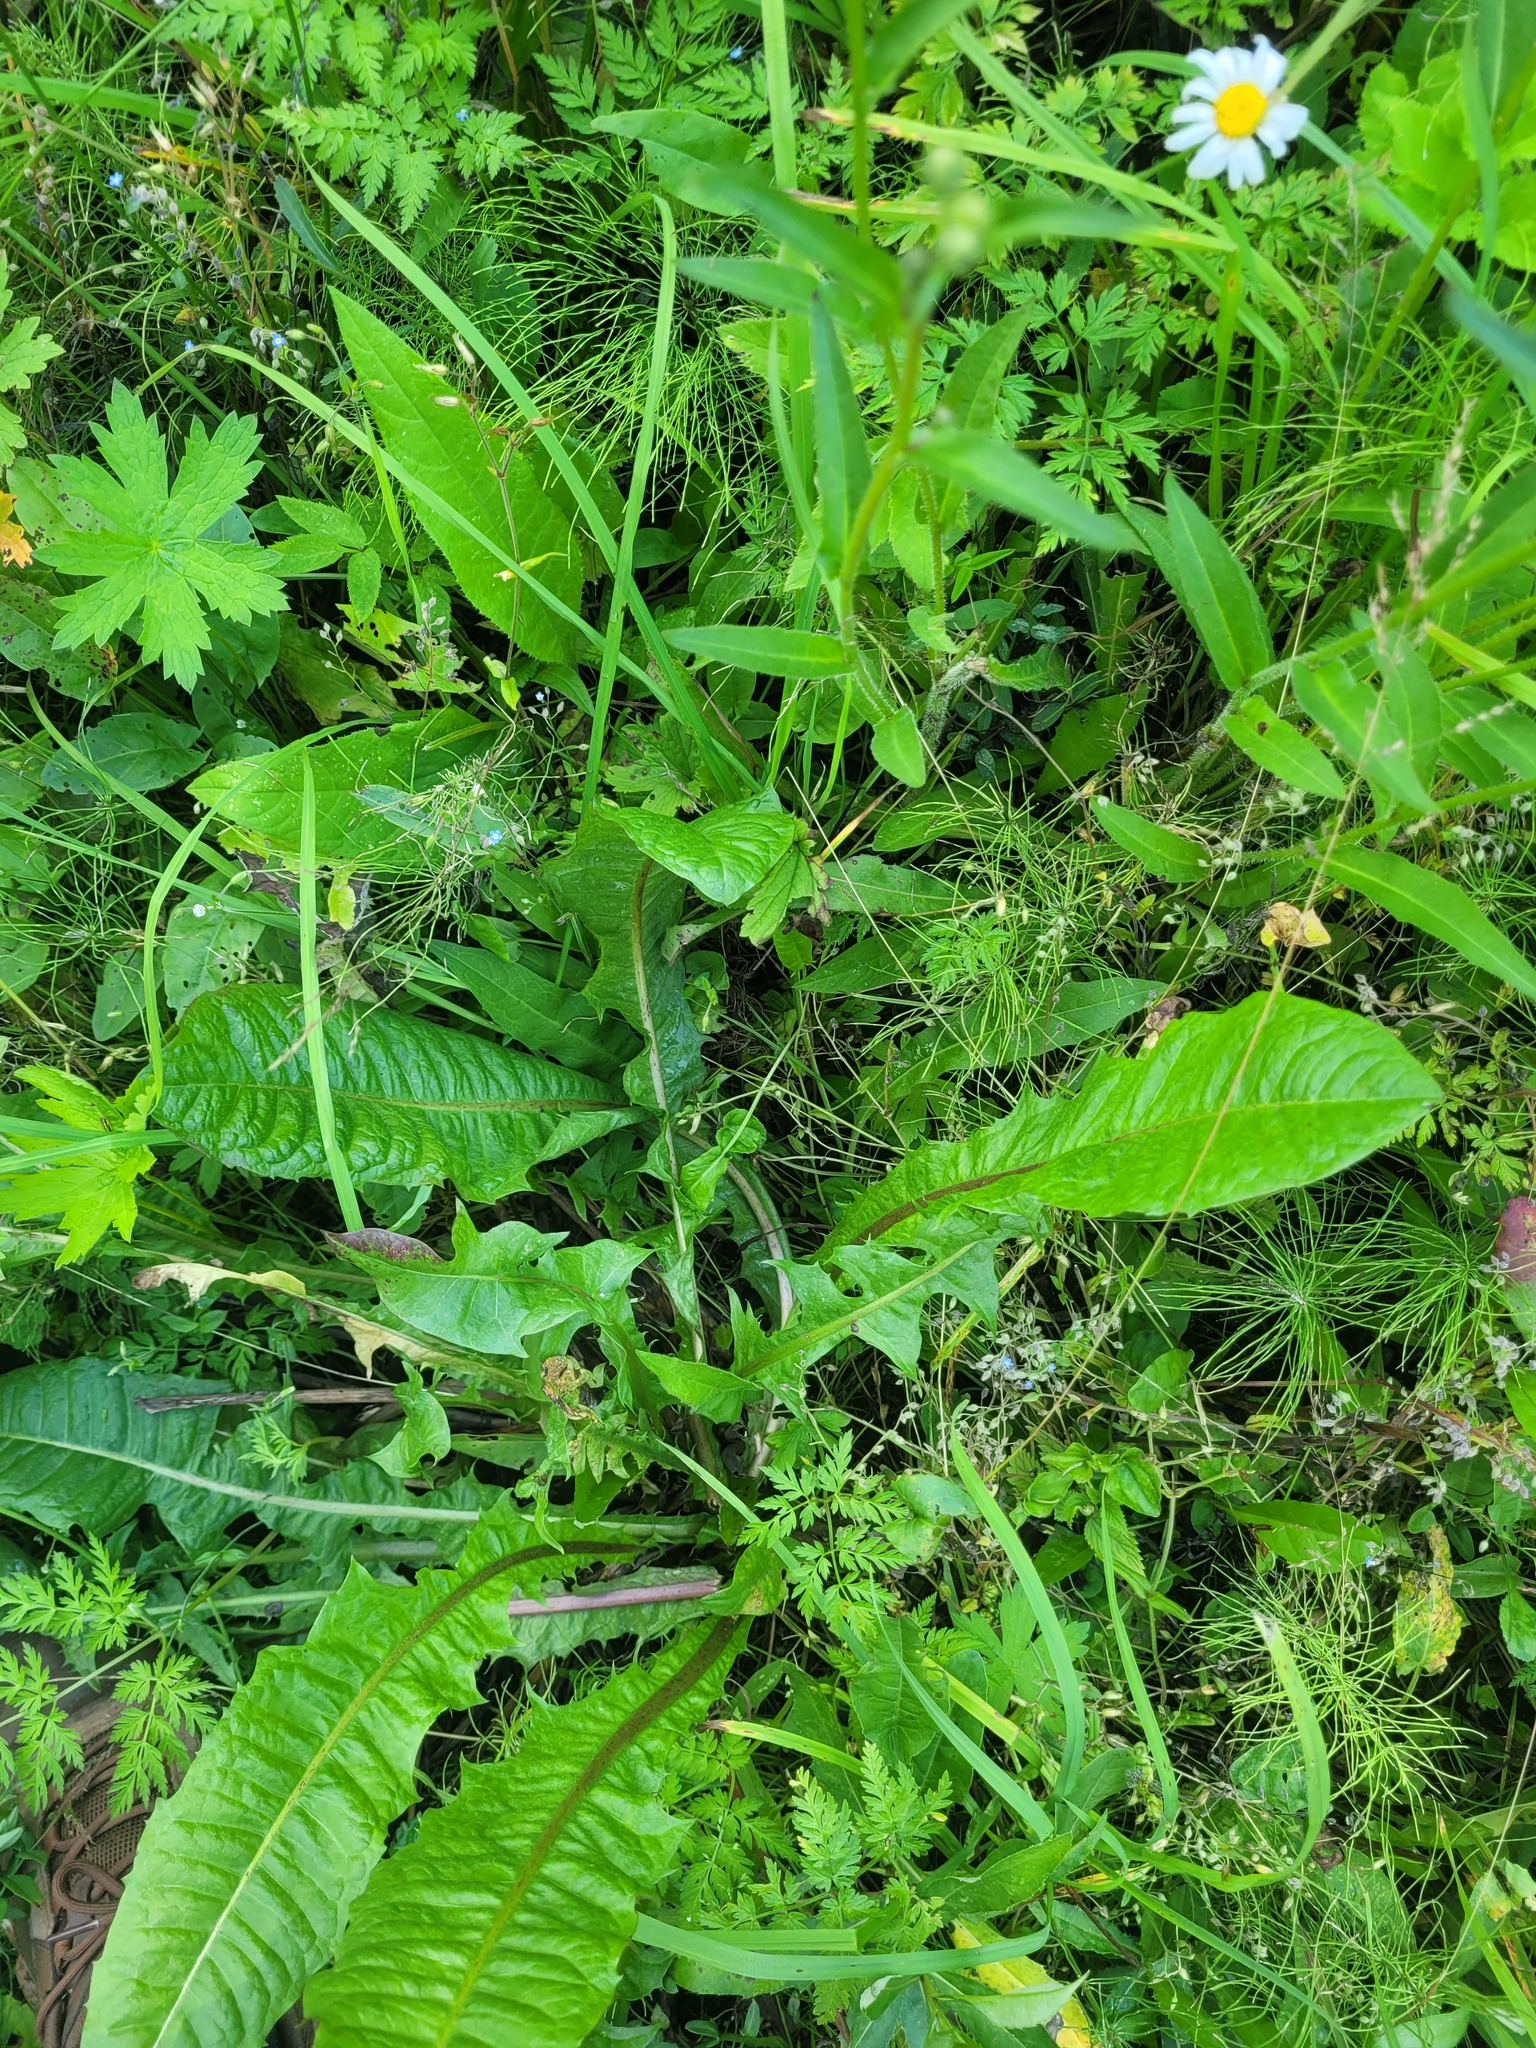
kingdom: Plantae
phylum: Tracheophyta
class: Magnoliopsida
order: Asterales
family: Asteraceae
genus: Taraxacum
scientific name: Taraxacum officinale
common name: Common dandelion
